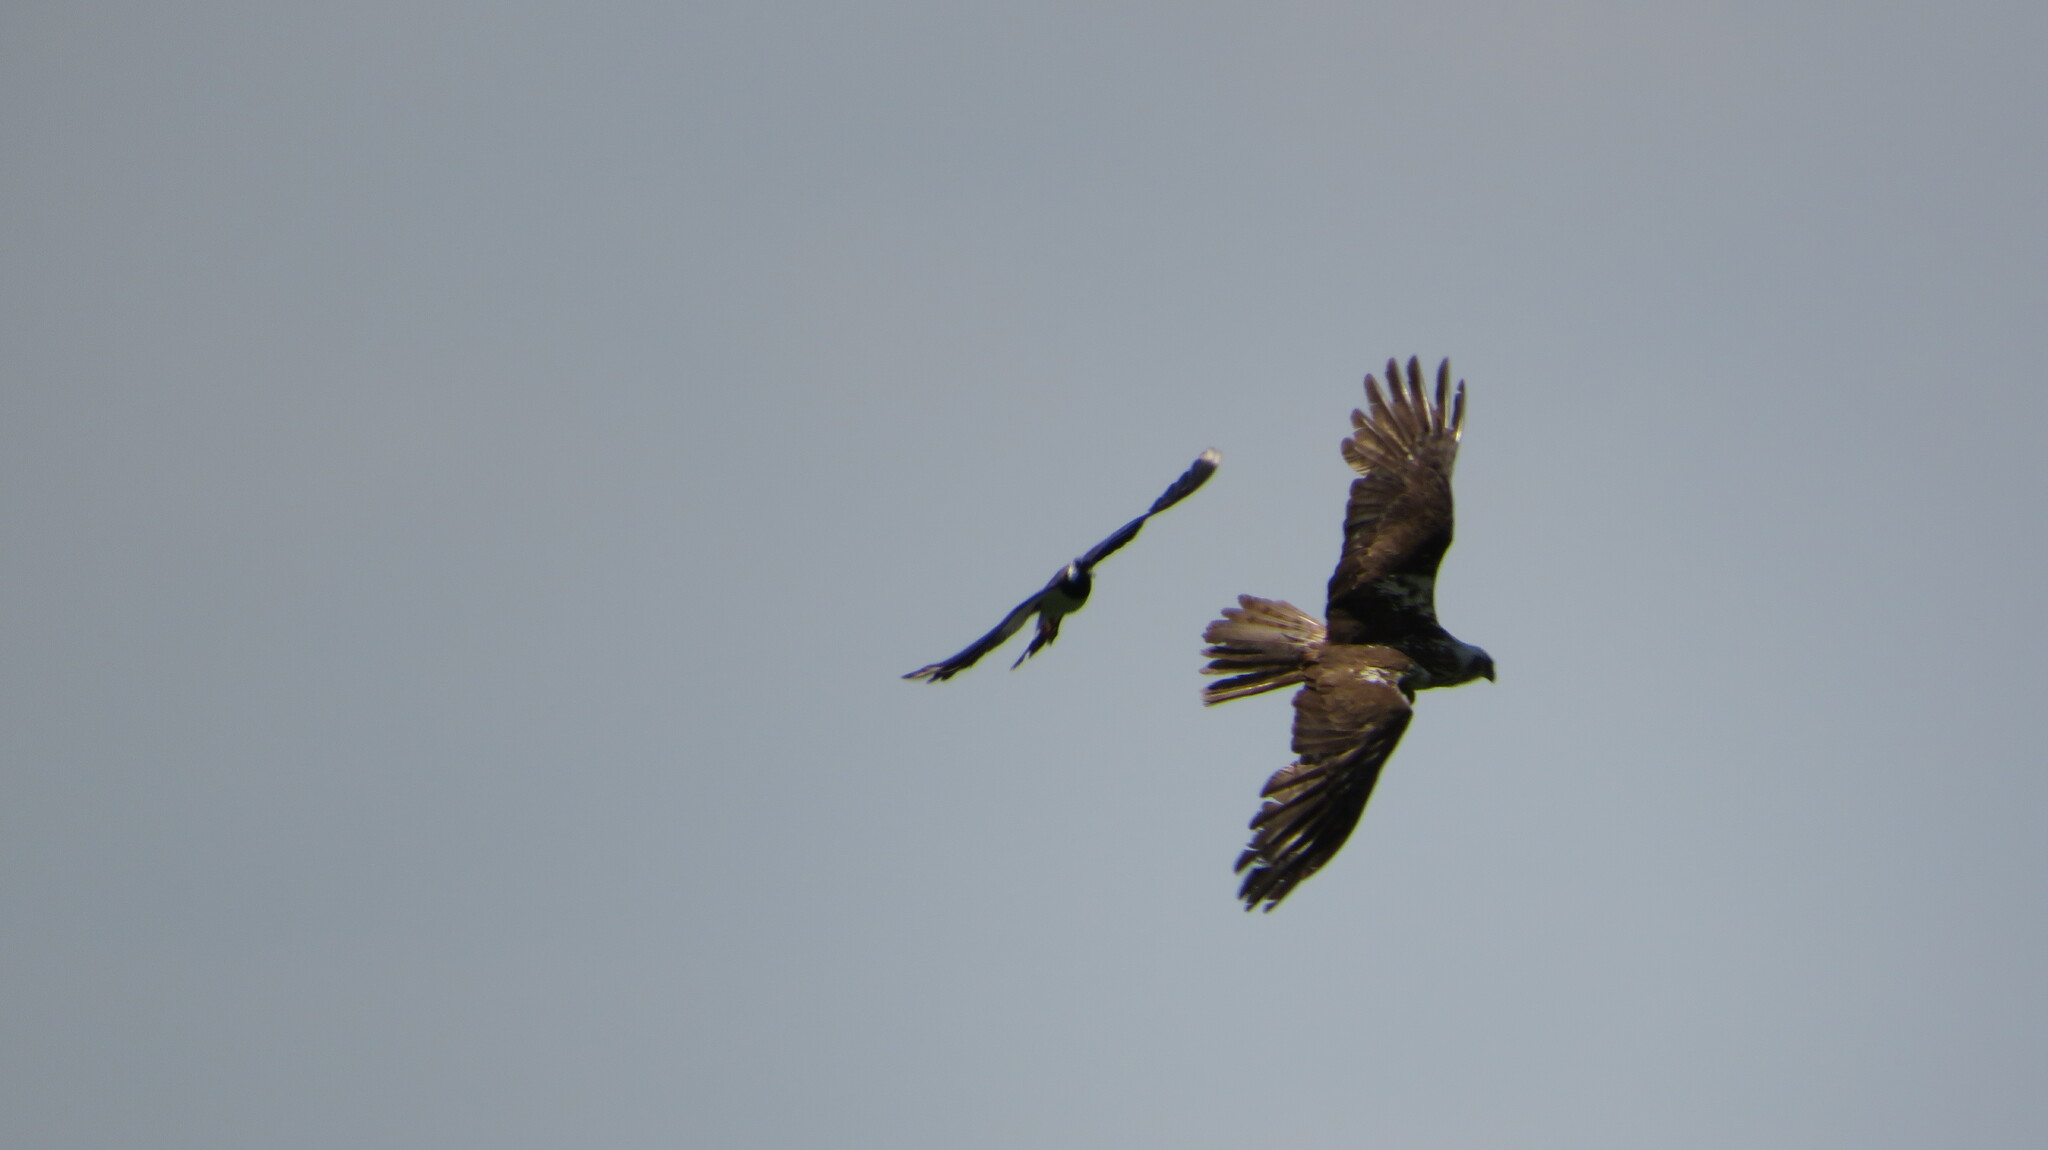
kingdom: Animalia
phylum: Chordata
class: Aves
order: Accipitriformes
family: Accipitridae
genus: Circus
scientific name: Circus aeruginosus
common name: Western marsh harrier
